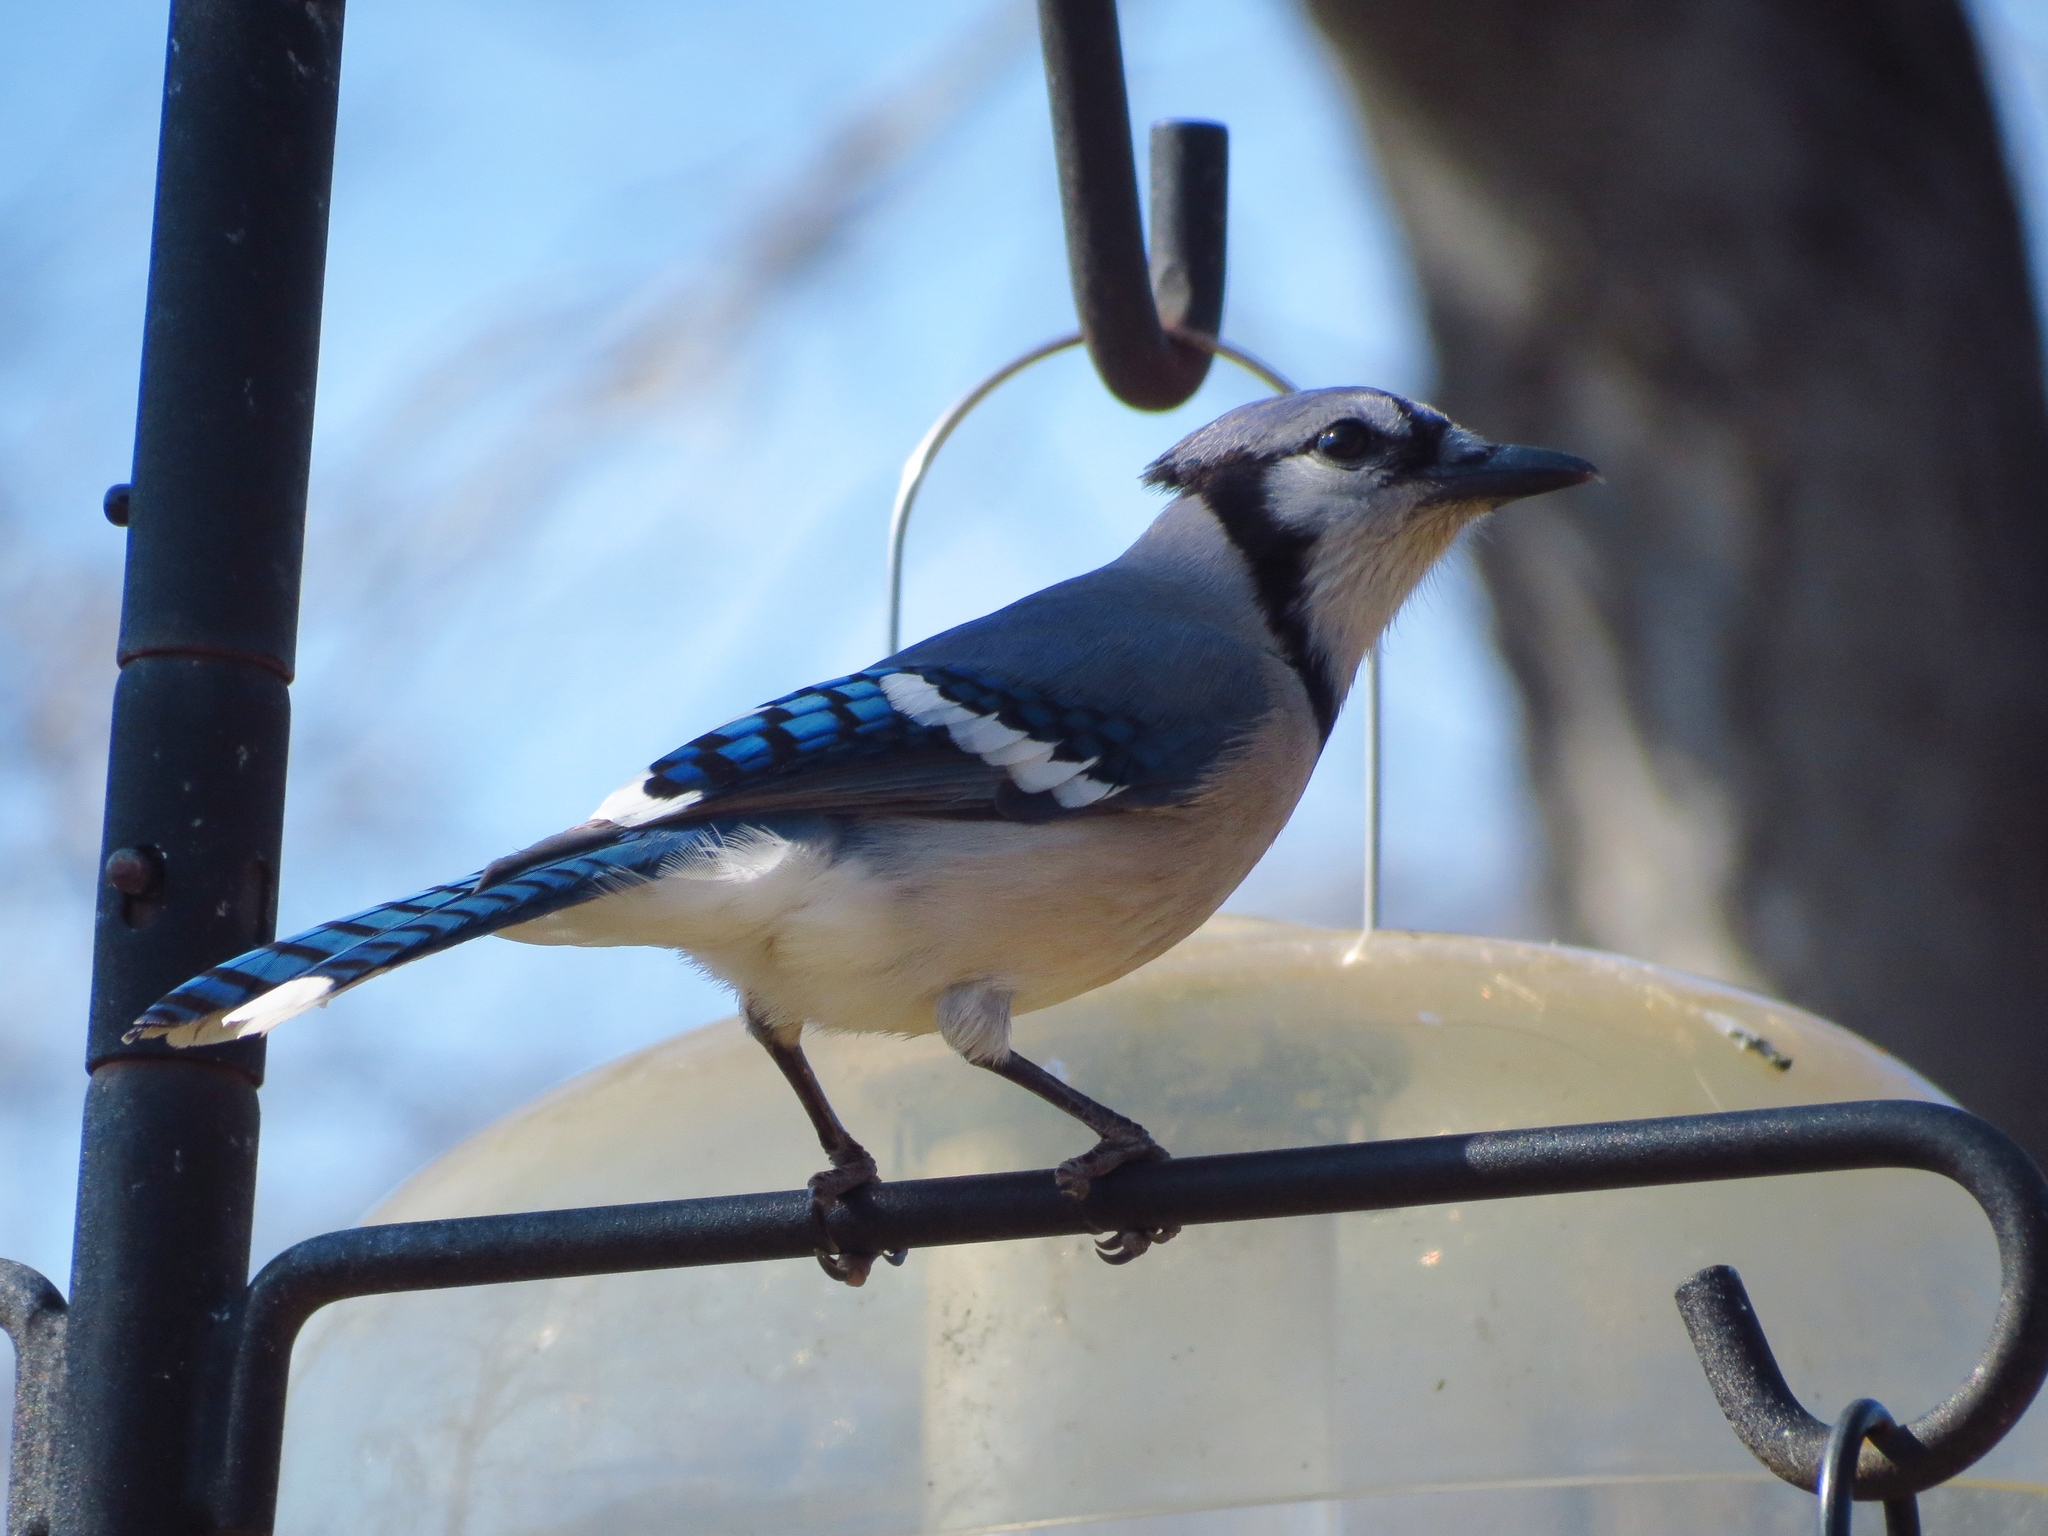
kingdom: Animalia
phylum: Chordata
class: Aves
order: Passeriformes
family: Corvidae
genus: Cyanocitta
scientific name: Cyanocitta cristata
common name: Blue jay
